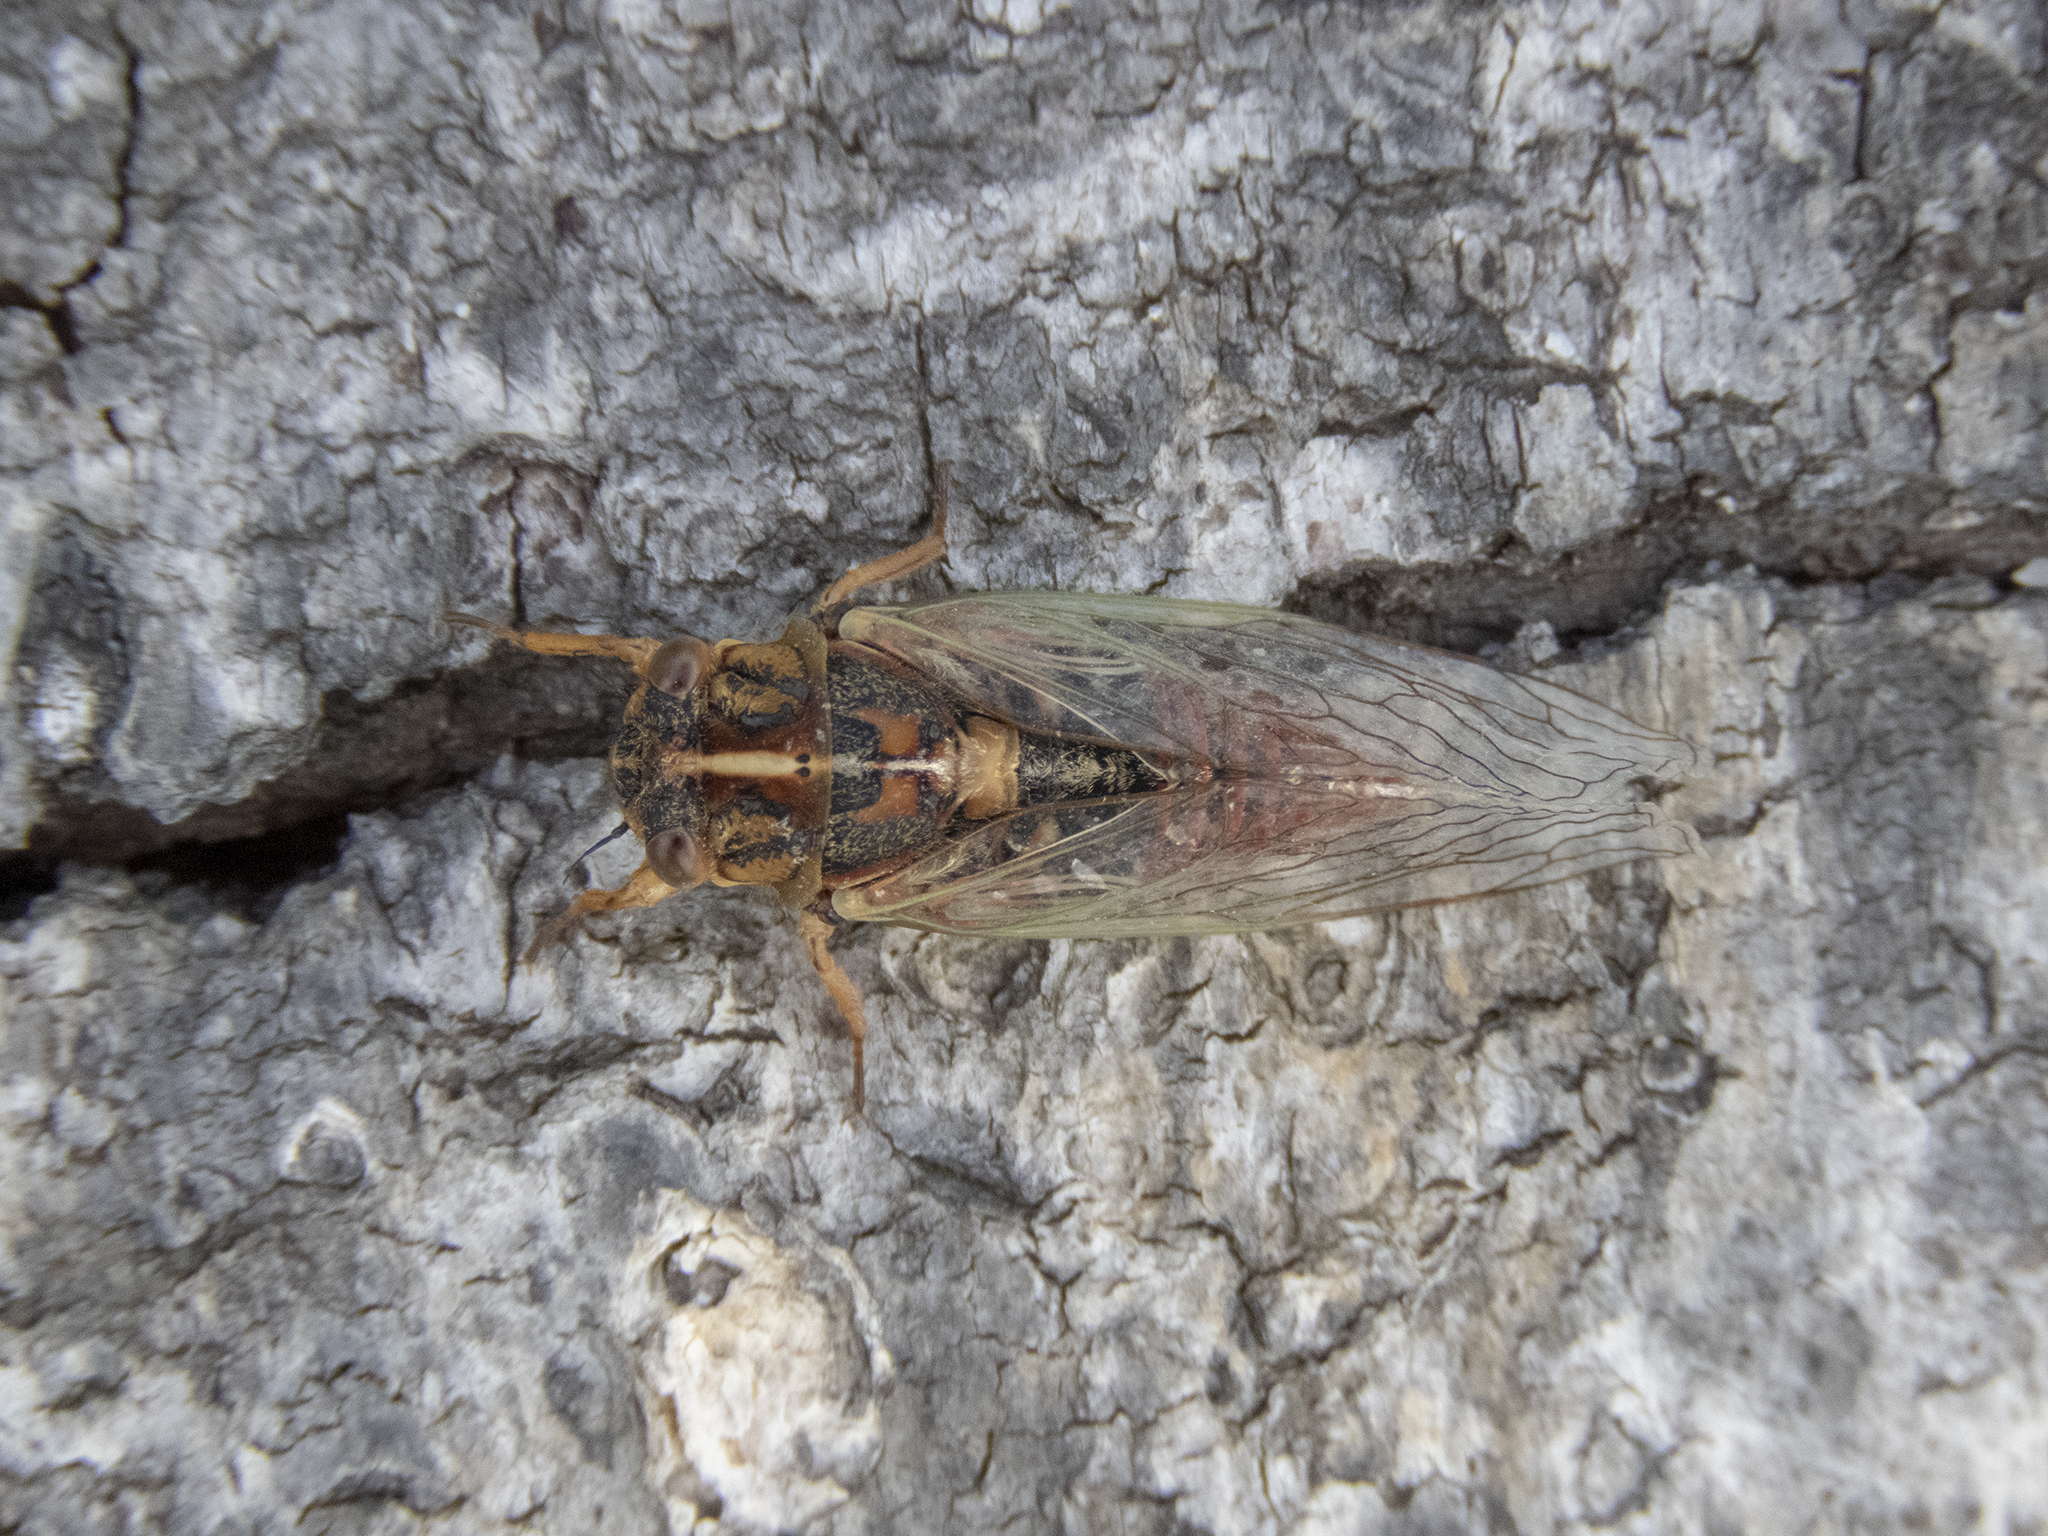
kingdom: Animalia
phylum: Arthropoda
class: Insecta
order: Hemiptera
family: Cicadidae
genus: Rhodopsalta
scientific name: Rhodopsalta cruentata
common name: Blood redtail cicada
